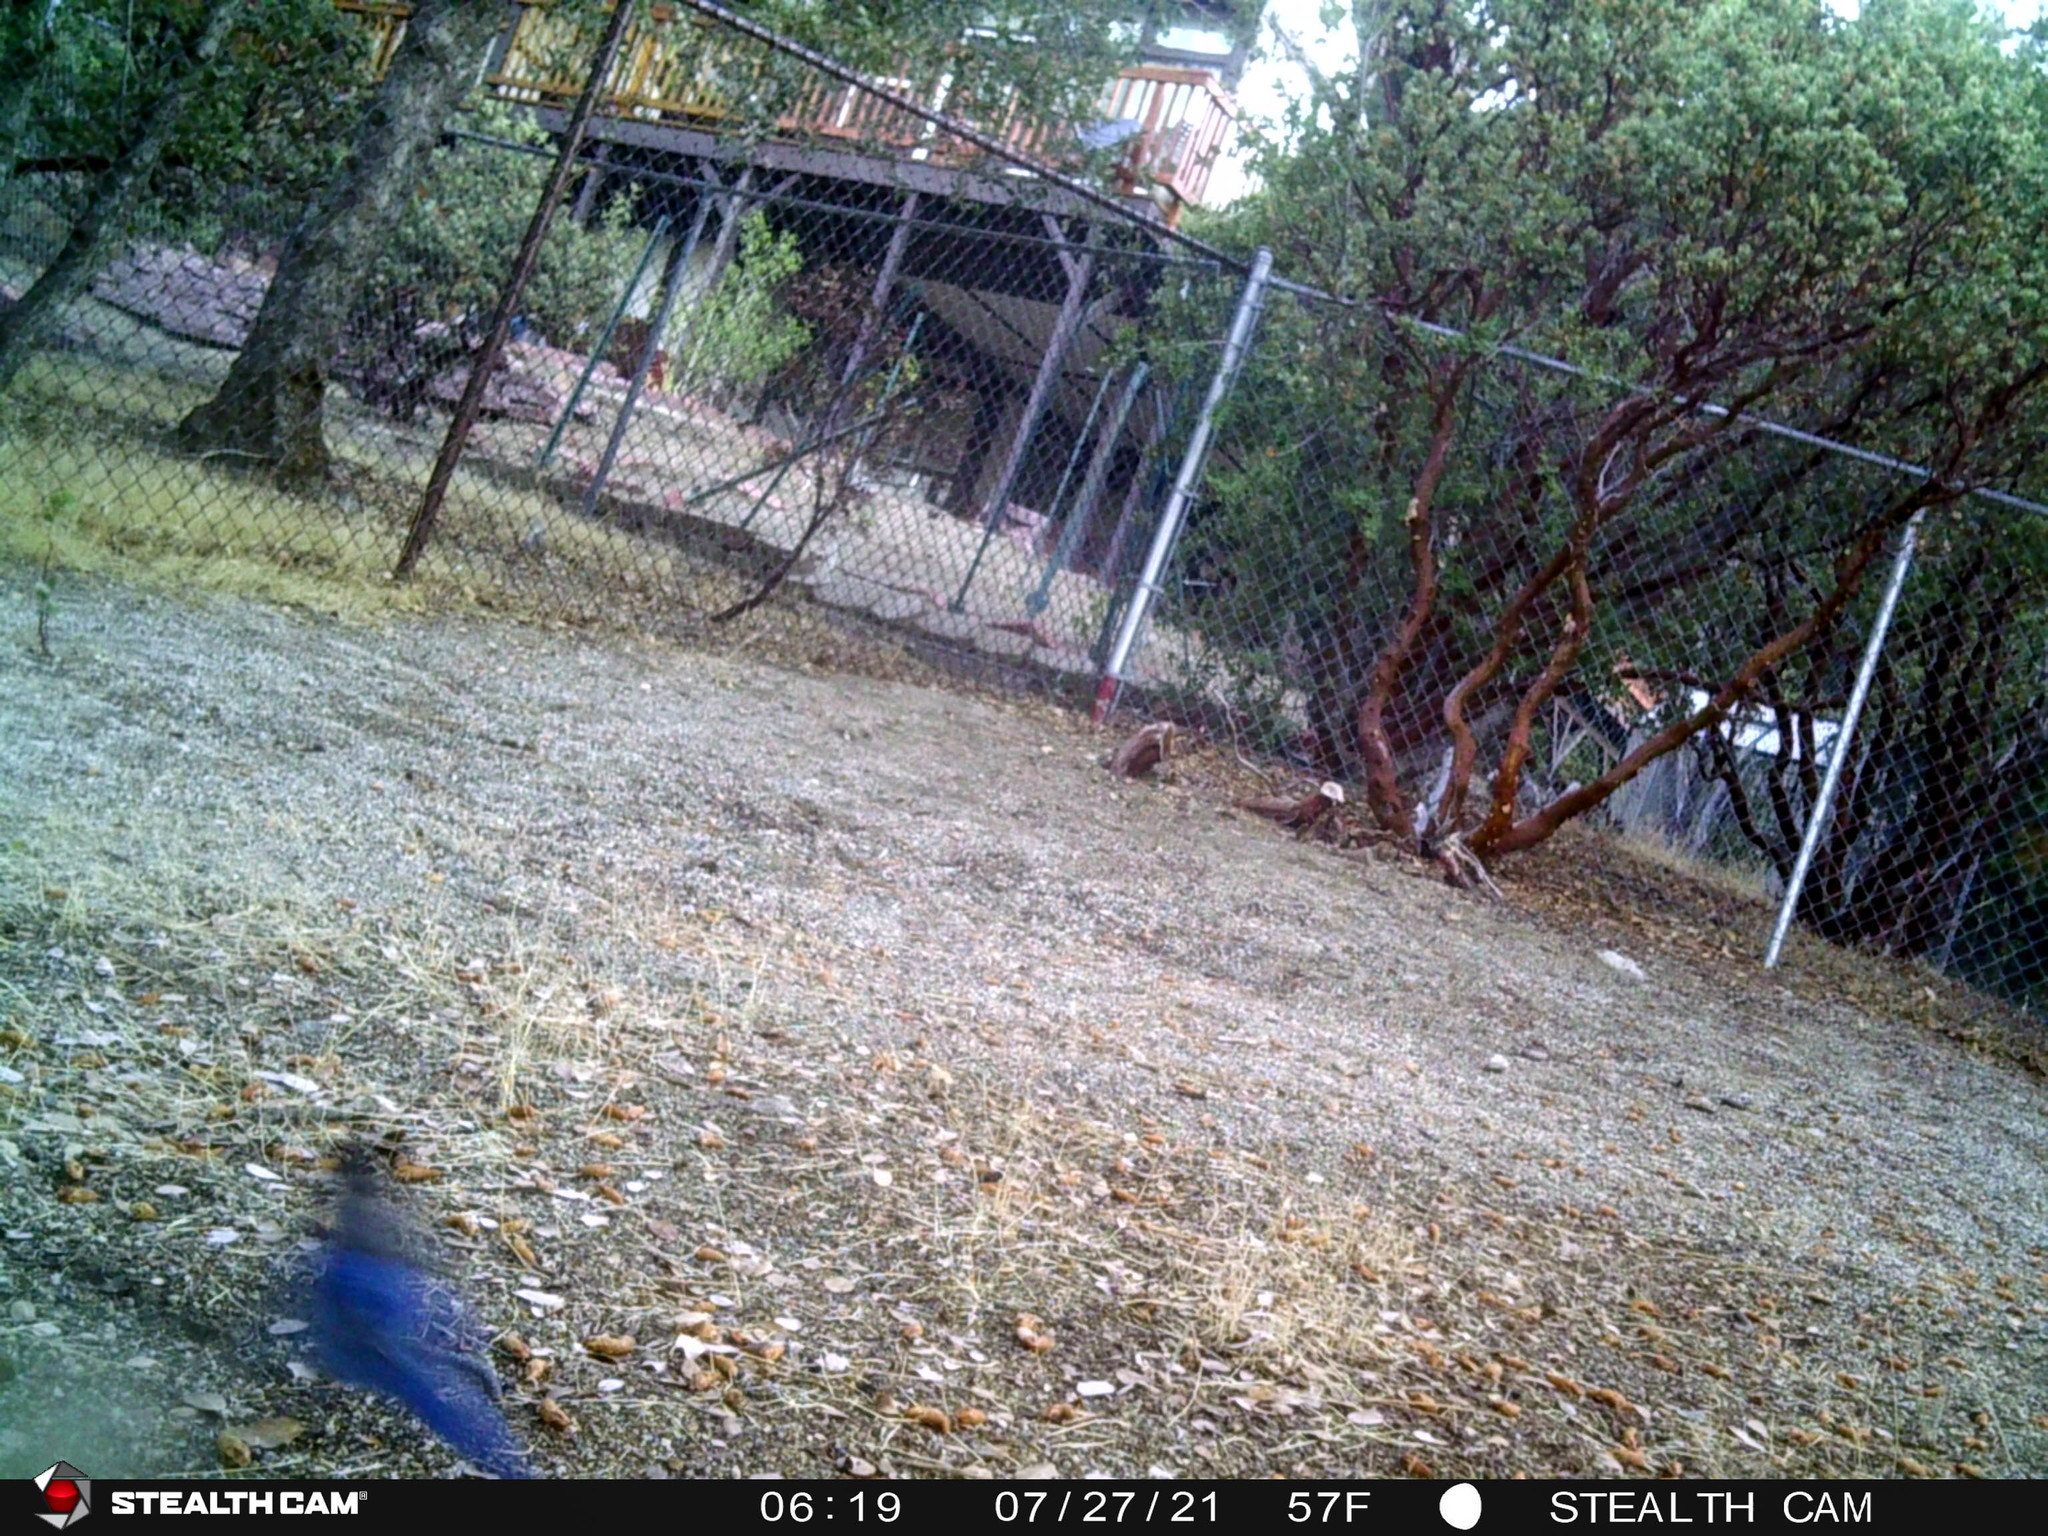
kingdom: Animalia
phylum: Chordata
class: Aves
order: Passeriformes
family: Corvidae
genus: Cyanocitta
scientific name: Cyanocitta stelleri
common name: Steller's jay
